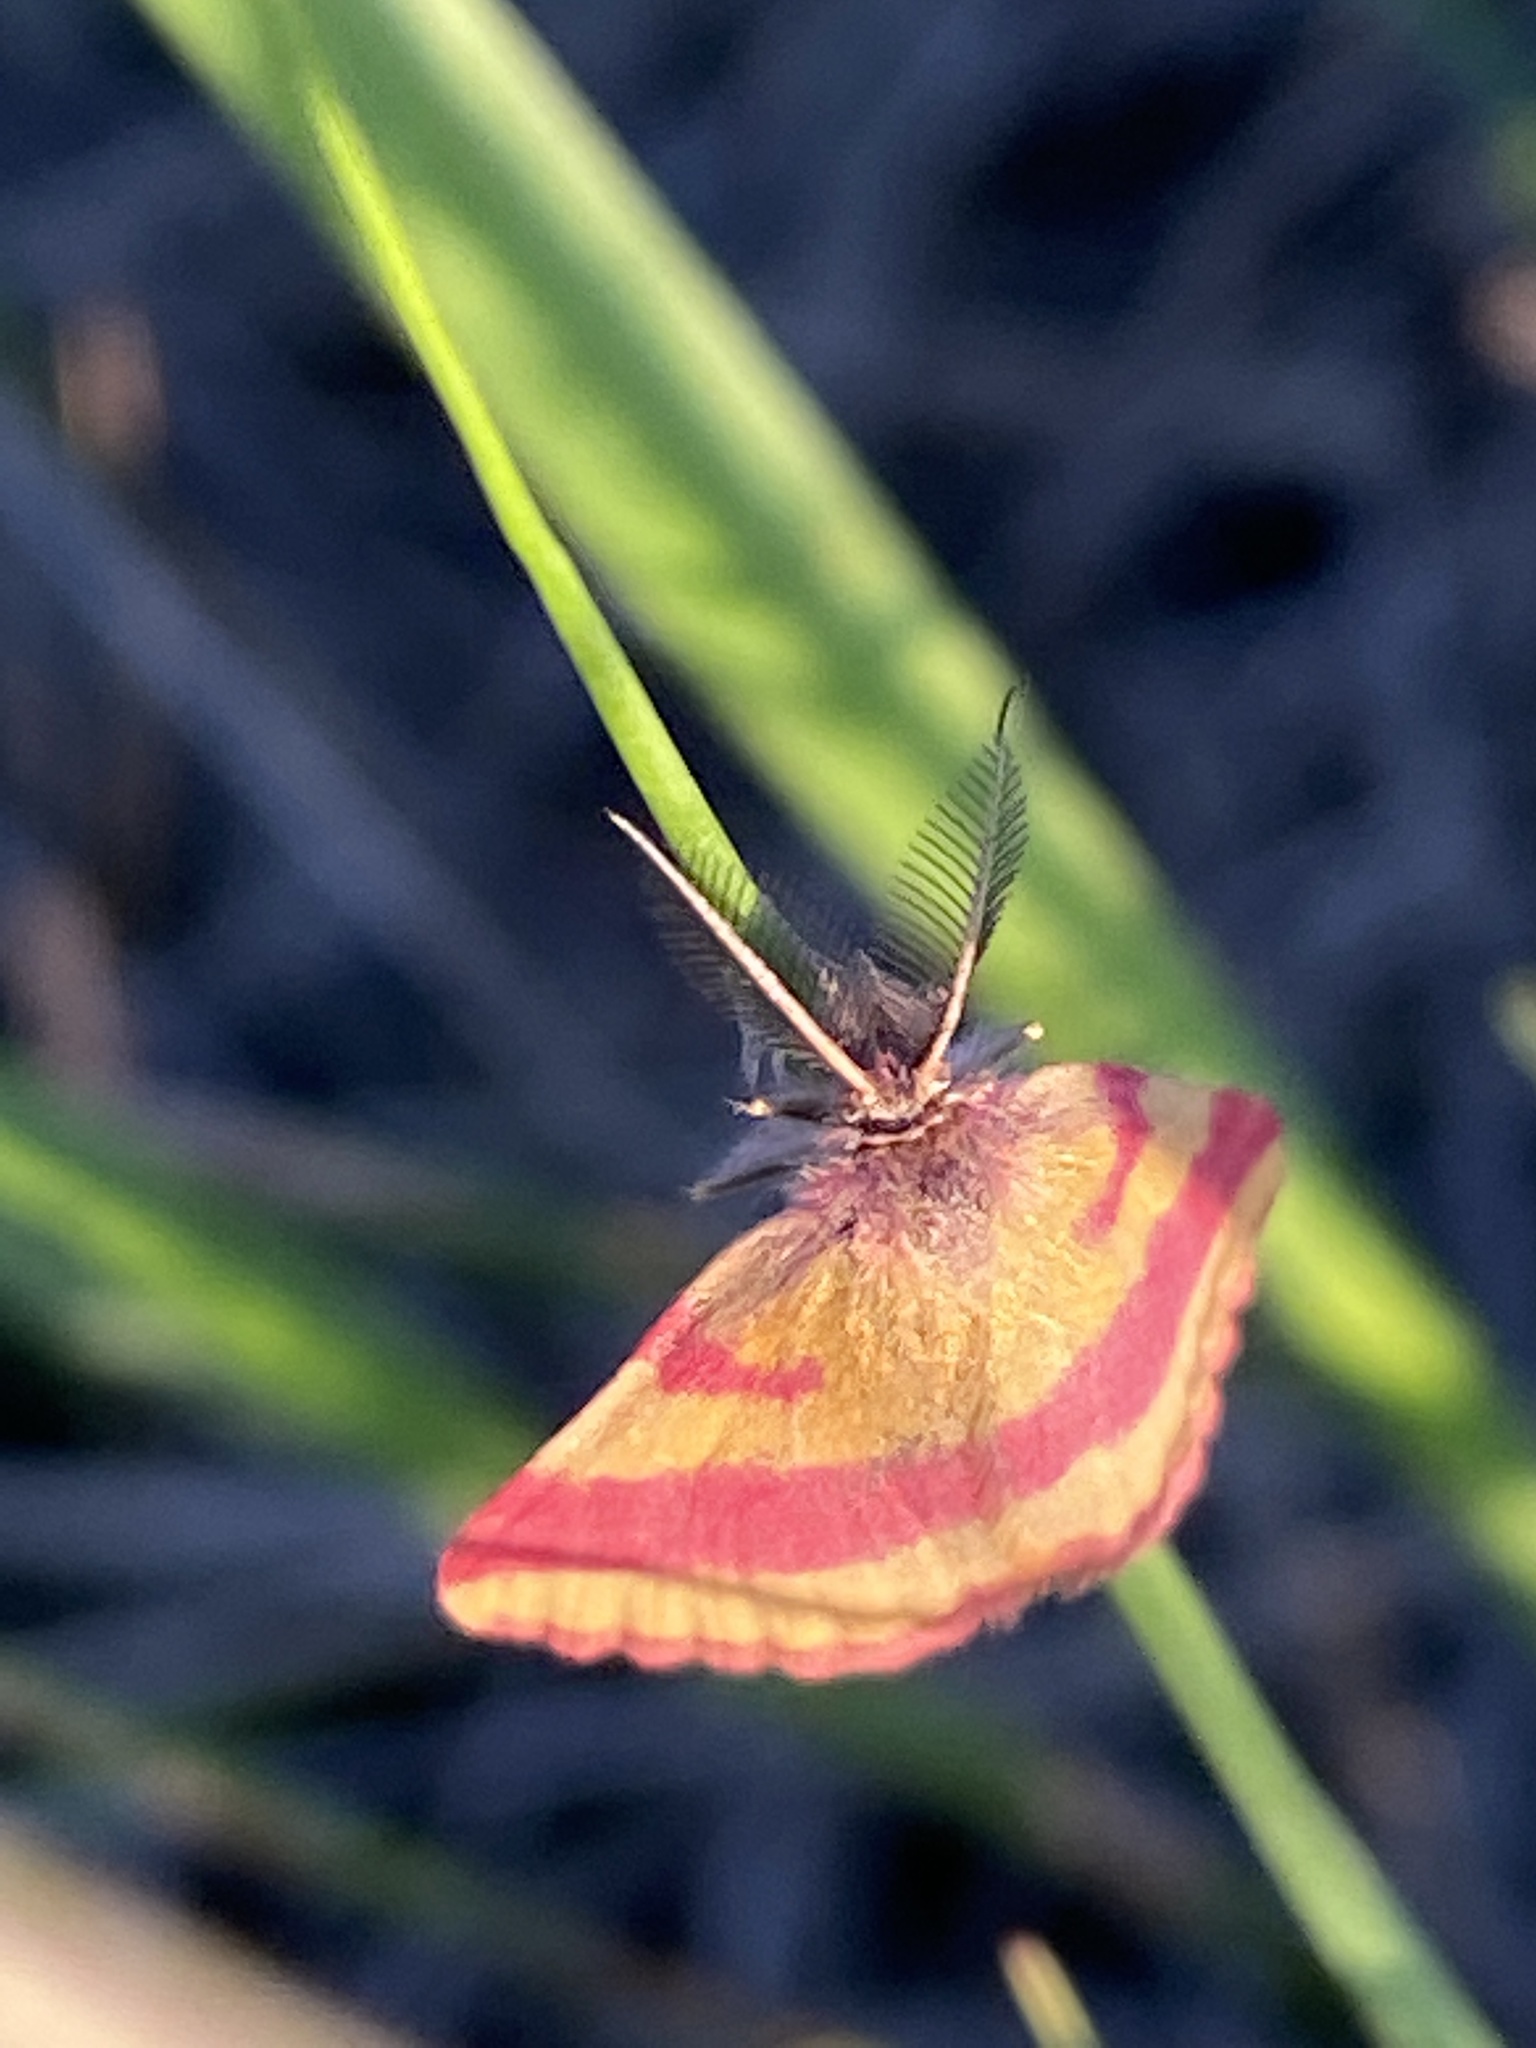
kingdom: Animalia
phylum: Arthropoda
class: Insecta
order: Lepidoptera
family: Geometridae
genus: Lythria
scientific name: Lythria cruentaria
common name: Purple-barred yellow
